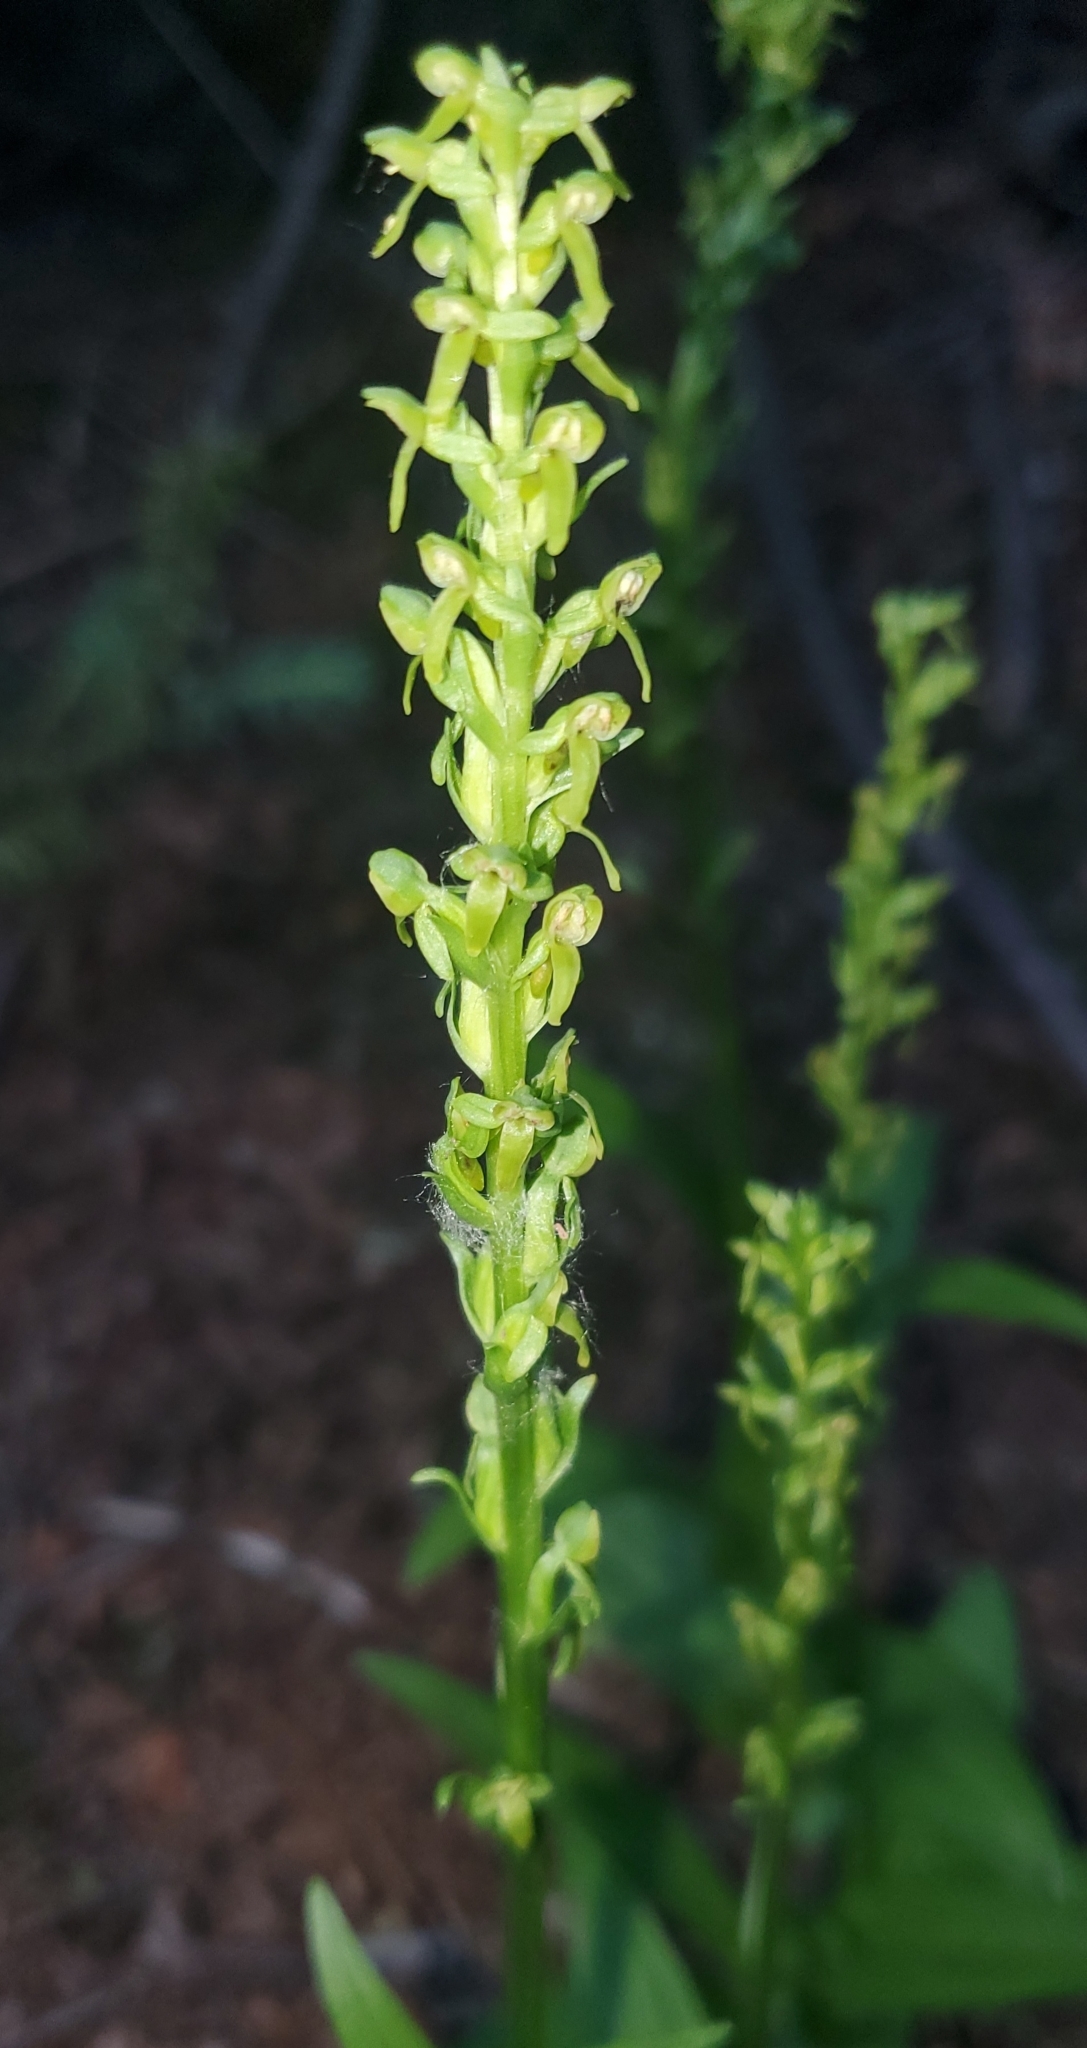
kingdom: Plantae
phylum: Tracheophyta
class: Liliopsida
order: Asparagales
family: Orchidaceae
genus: Platanthera
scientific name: Platanthera purpurascens
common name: Purple-petal bog orchid
